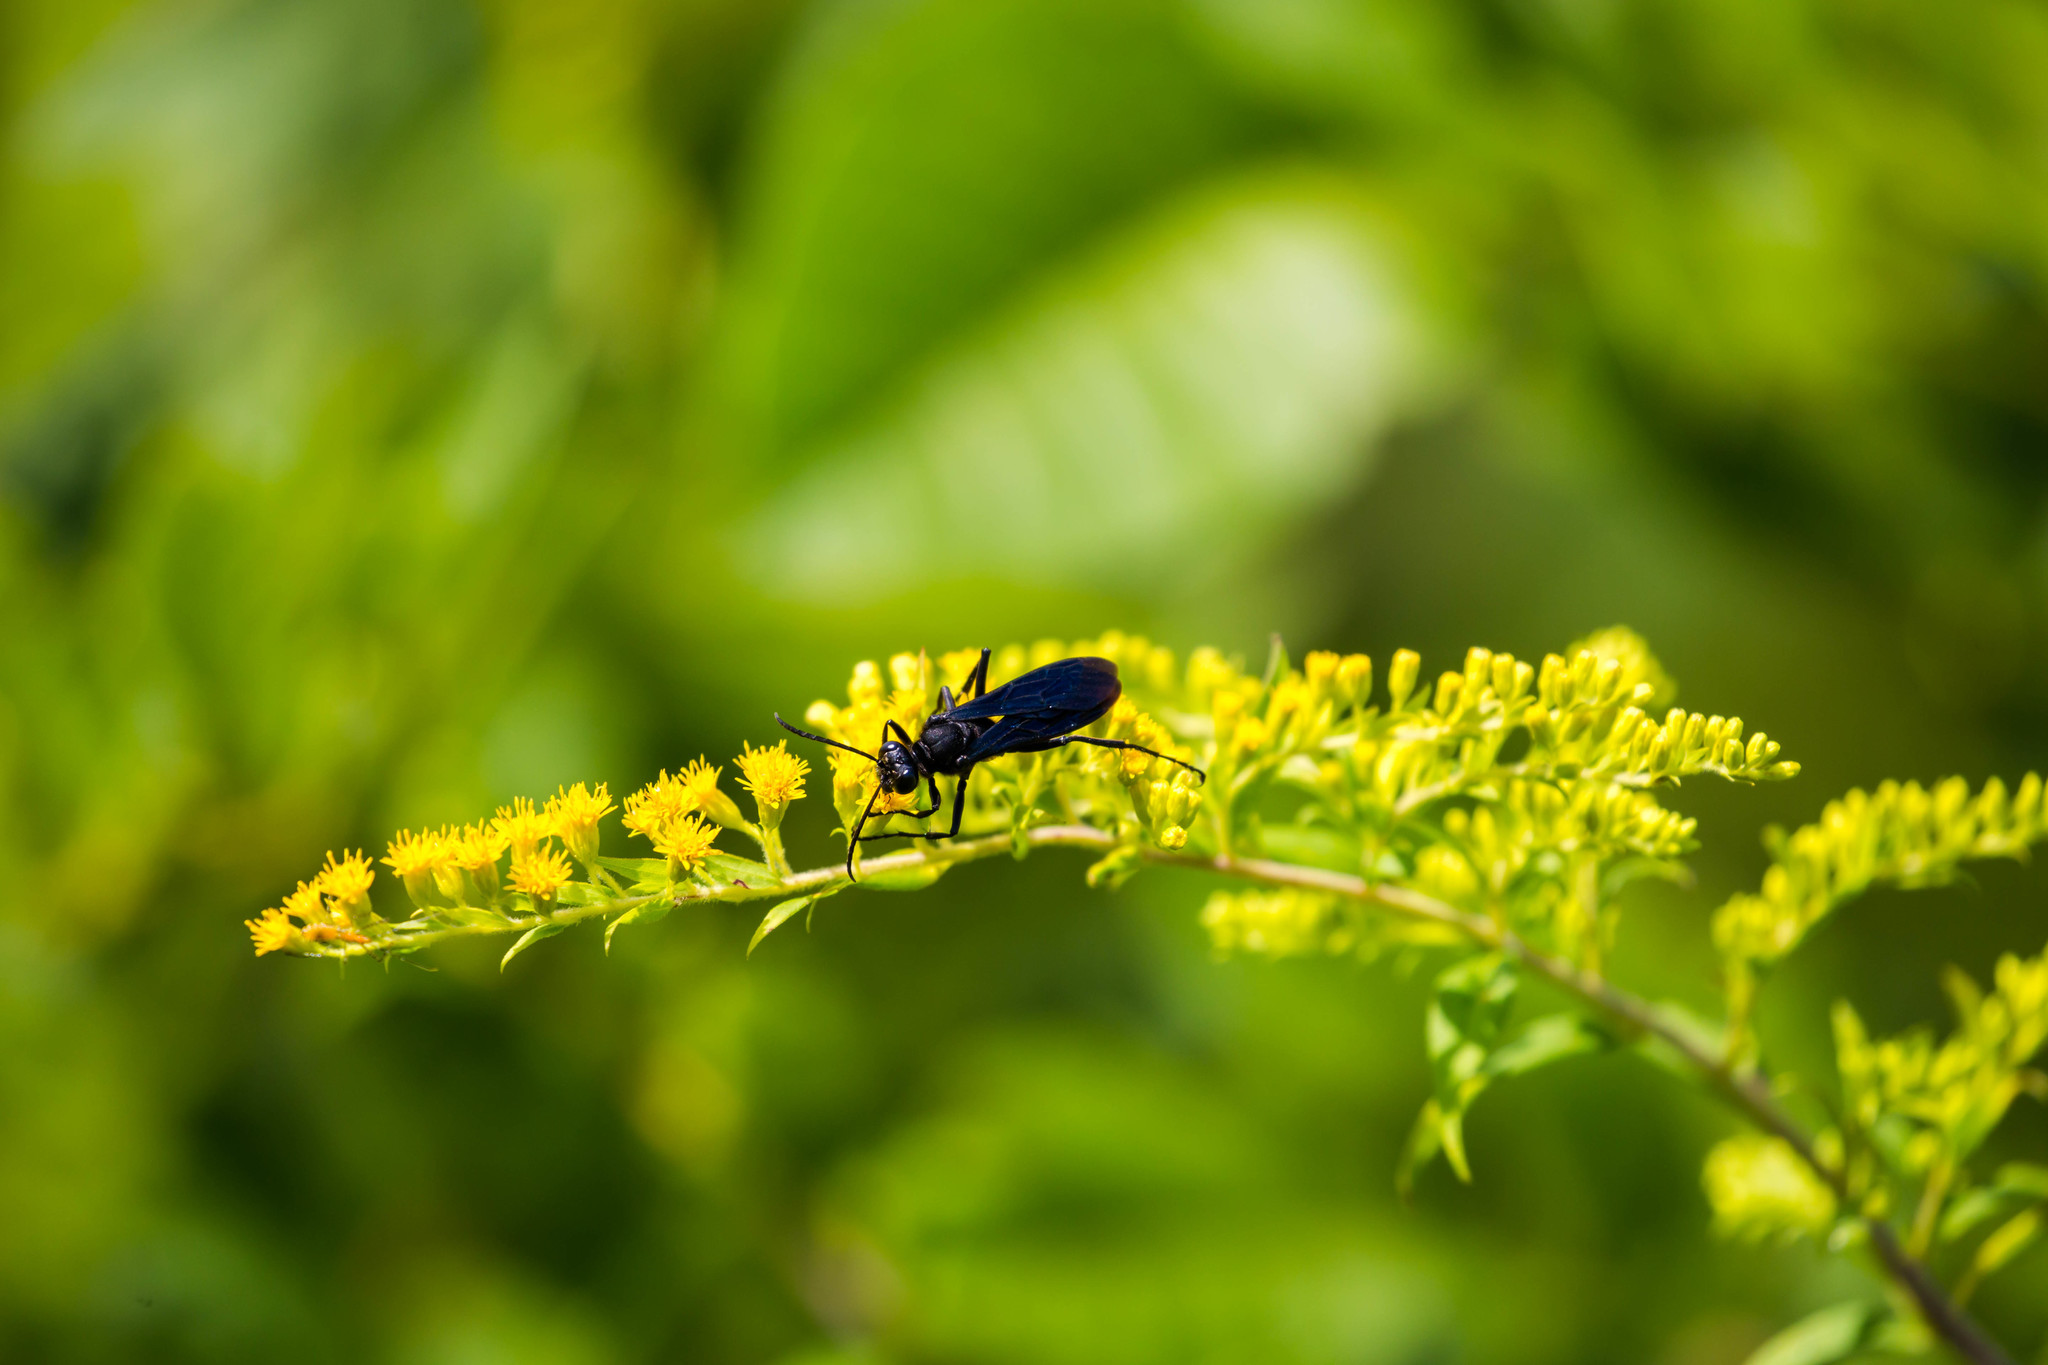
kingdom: Animalia
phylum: Arthropoda
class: Insecta
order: Hymenoptera
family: Sphecidae
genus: Sphex
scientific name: Sphex pensylvanicus
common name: Great black digger wasp
